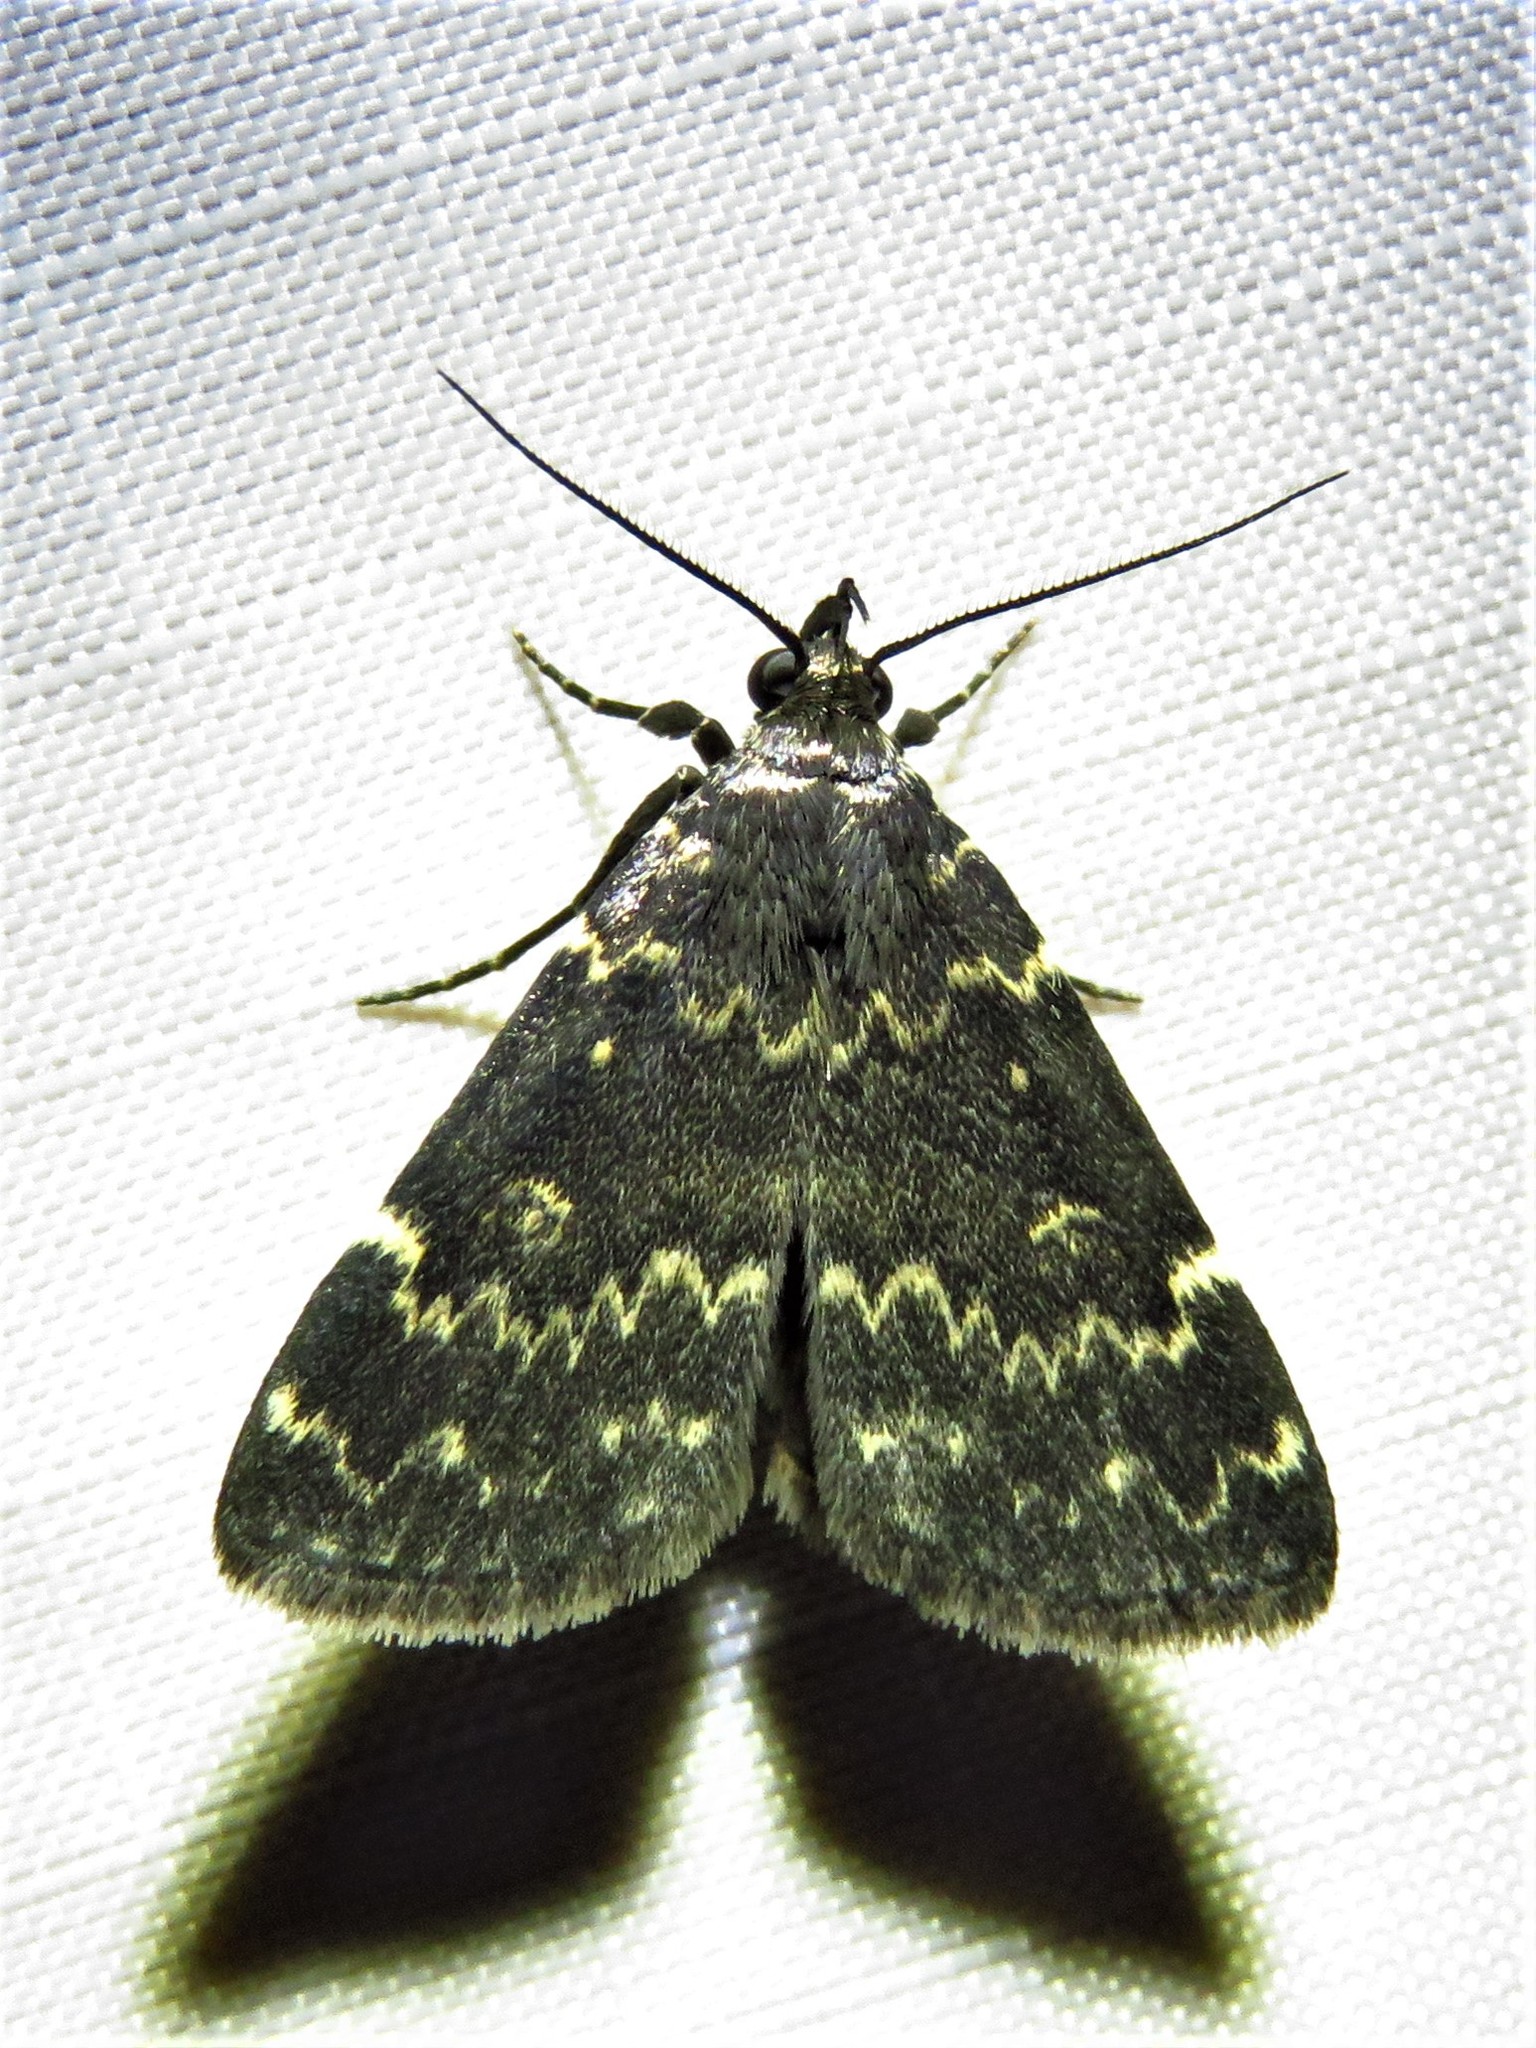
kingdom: Animalia
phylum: Arthropoda
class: Insecta
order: Lepidoptera
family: Erebidae
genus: Idia
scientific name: Idia lubricalis
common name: Twin-striped tabby
